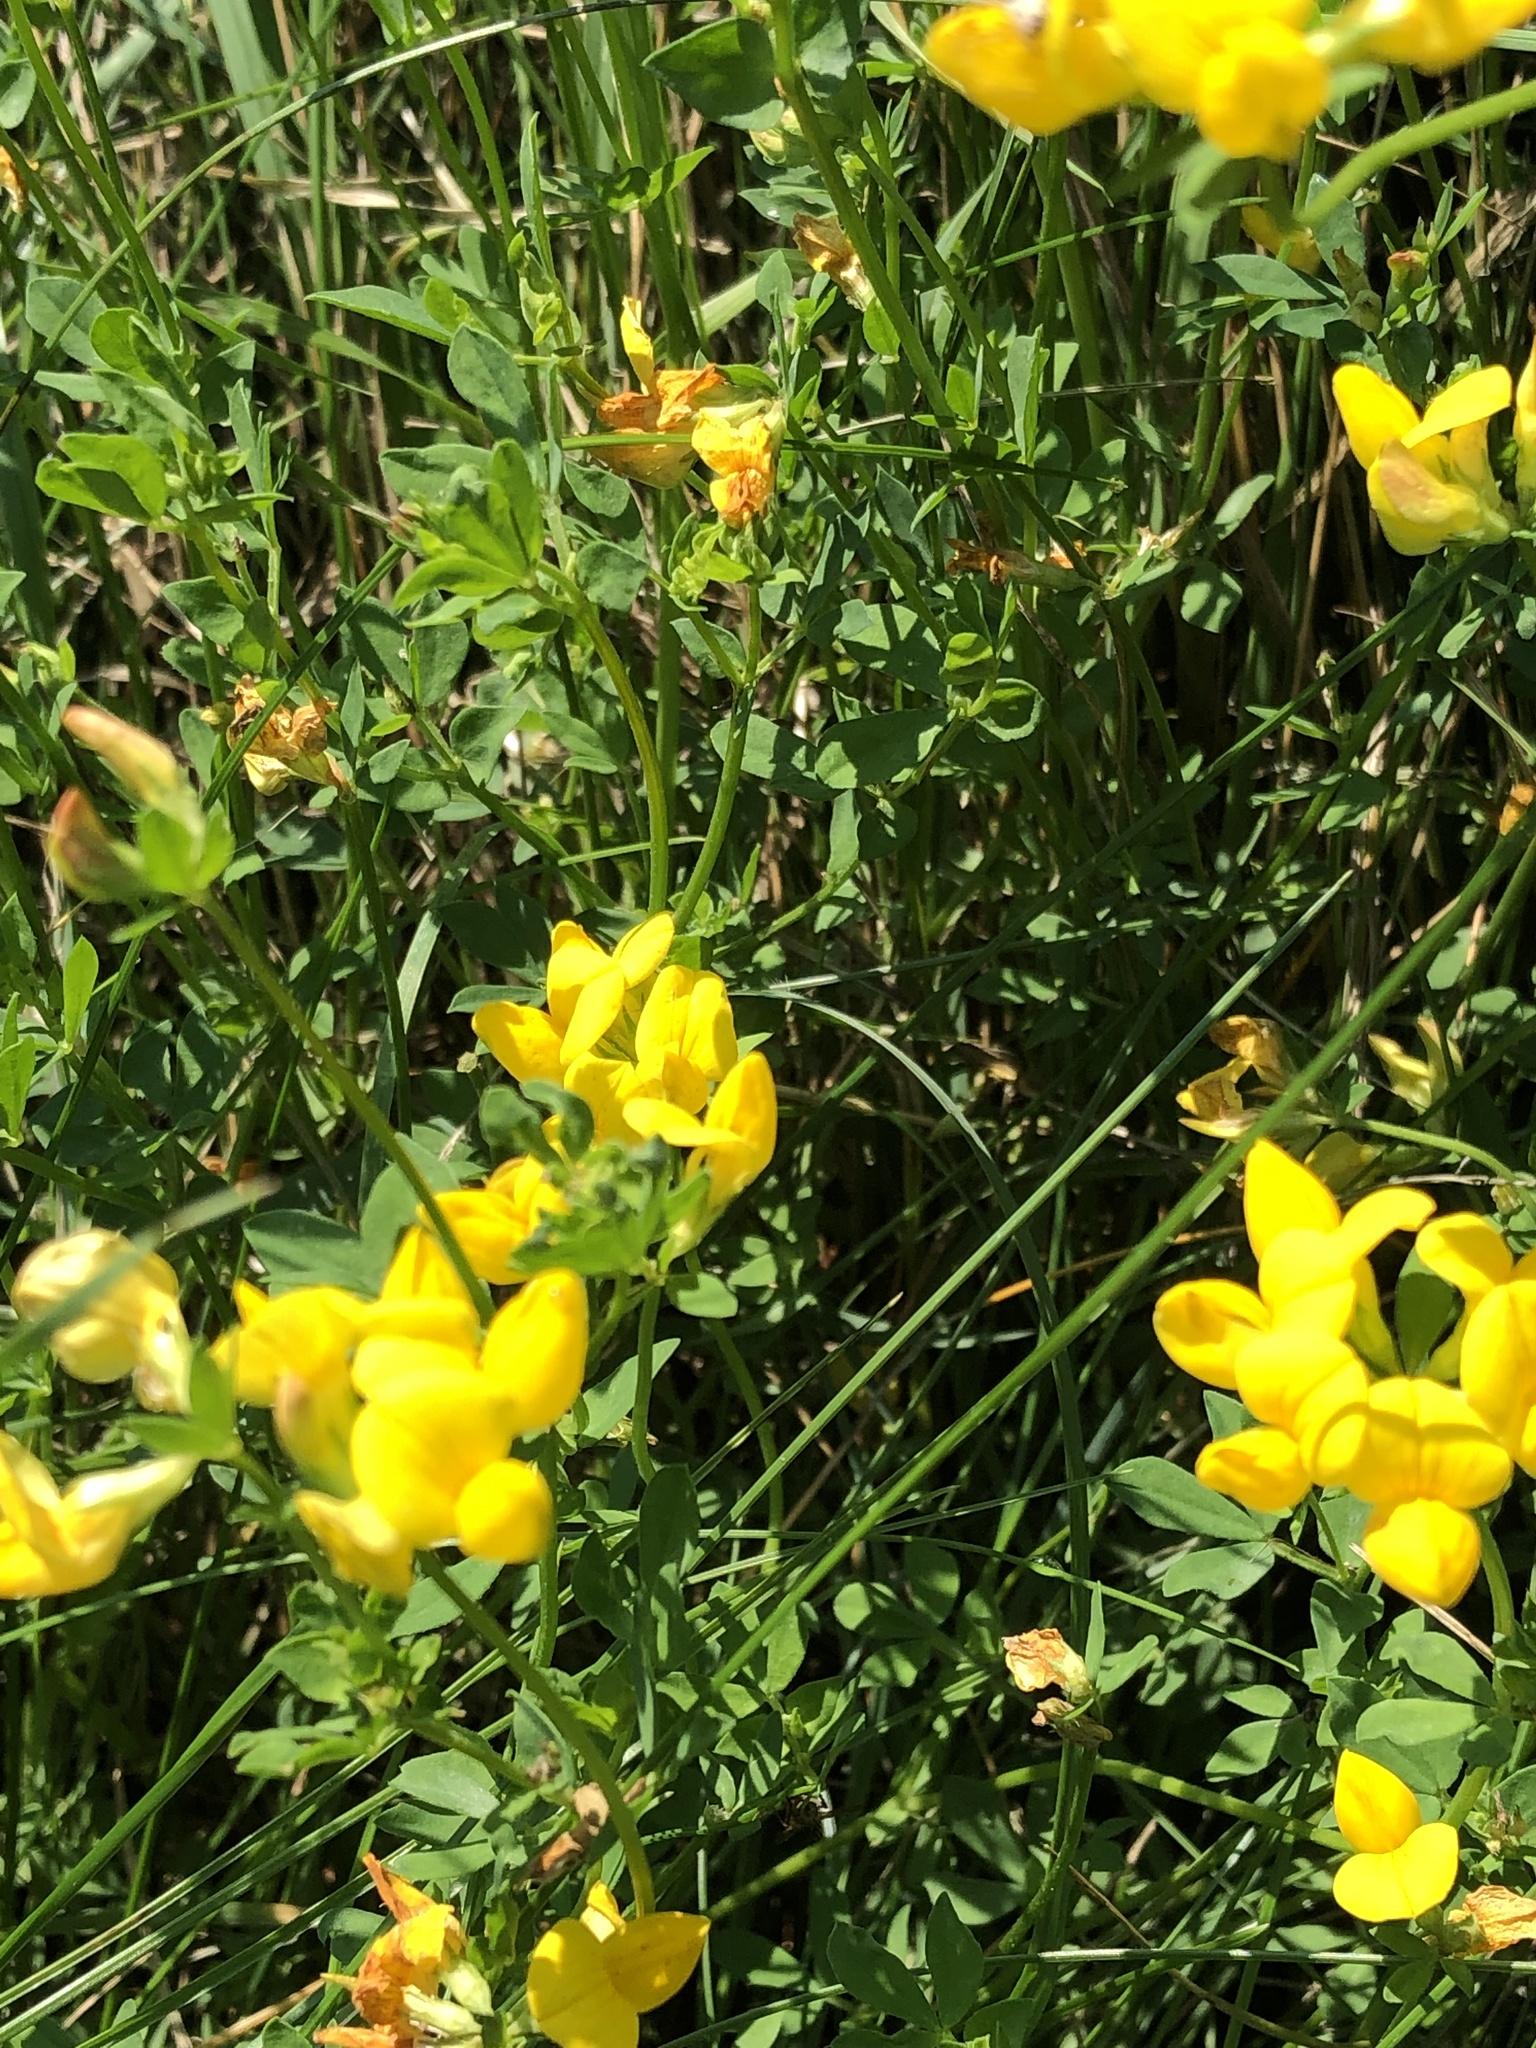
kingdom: Plantae
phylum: Tracheophyta
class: Magnoliopsida
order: Fabales
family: Fabaceae
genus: Lotus
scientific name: Lotus corniculatus
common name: Common bird's-foot-trefoil
